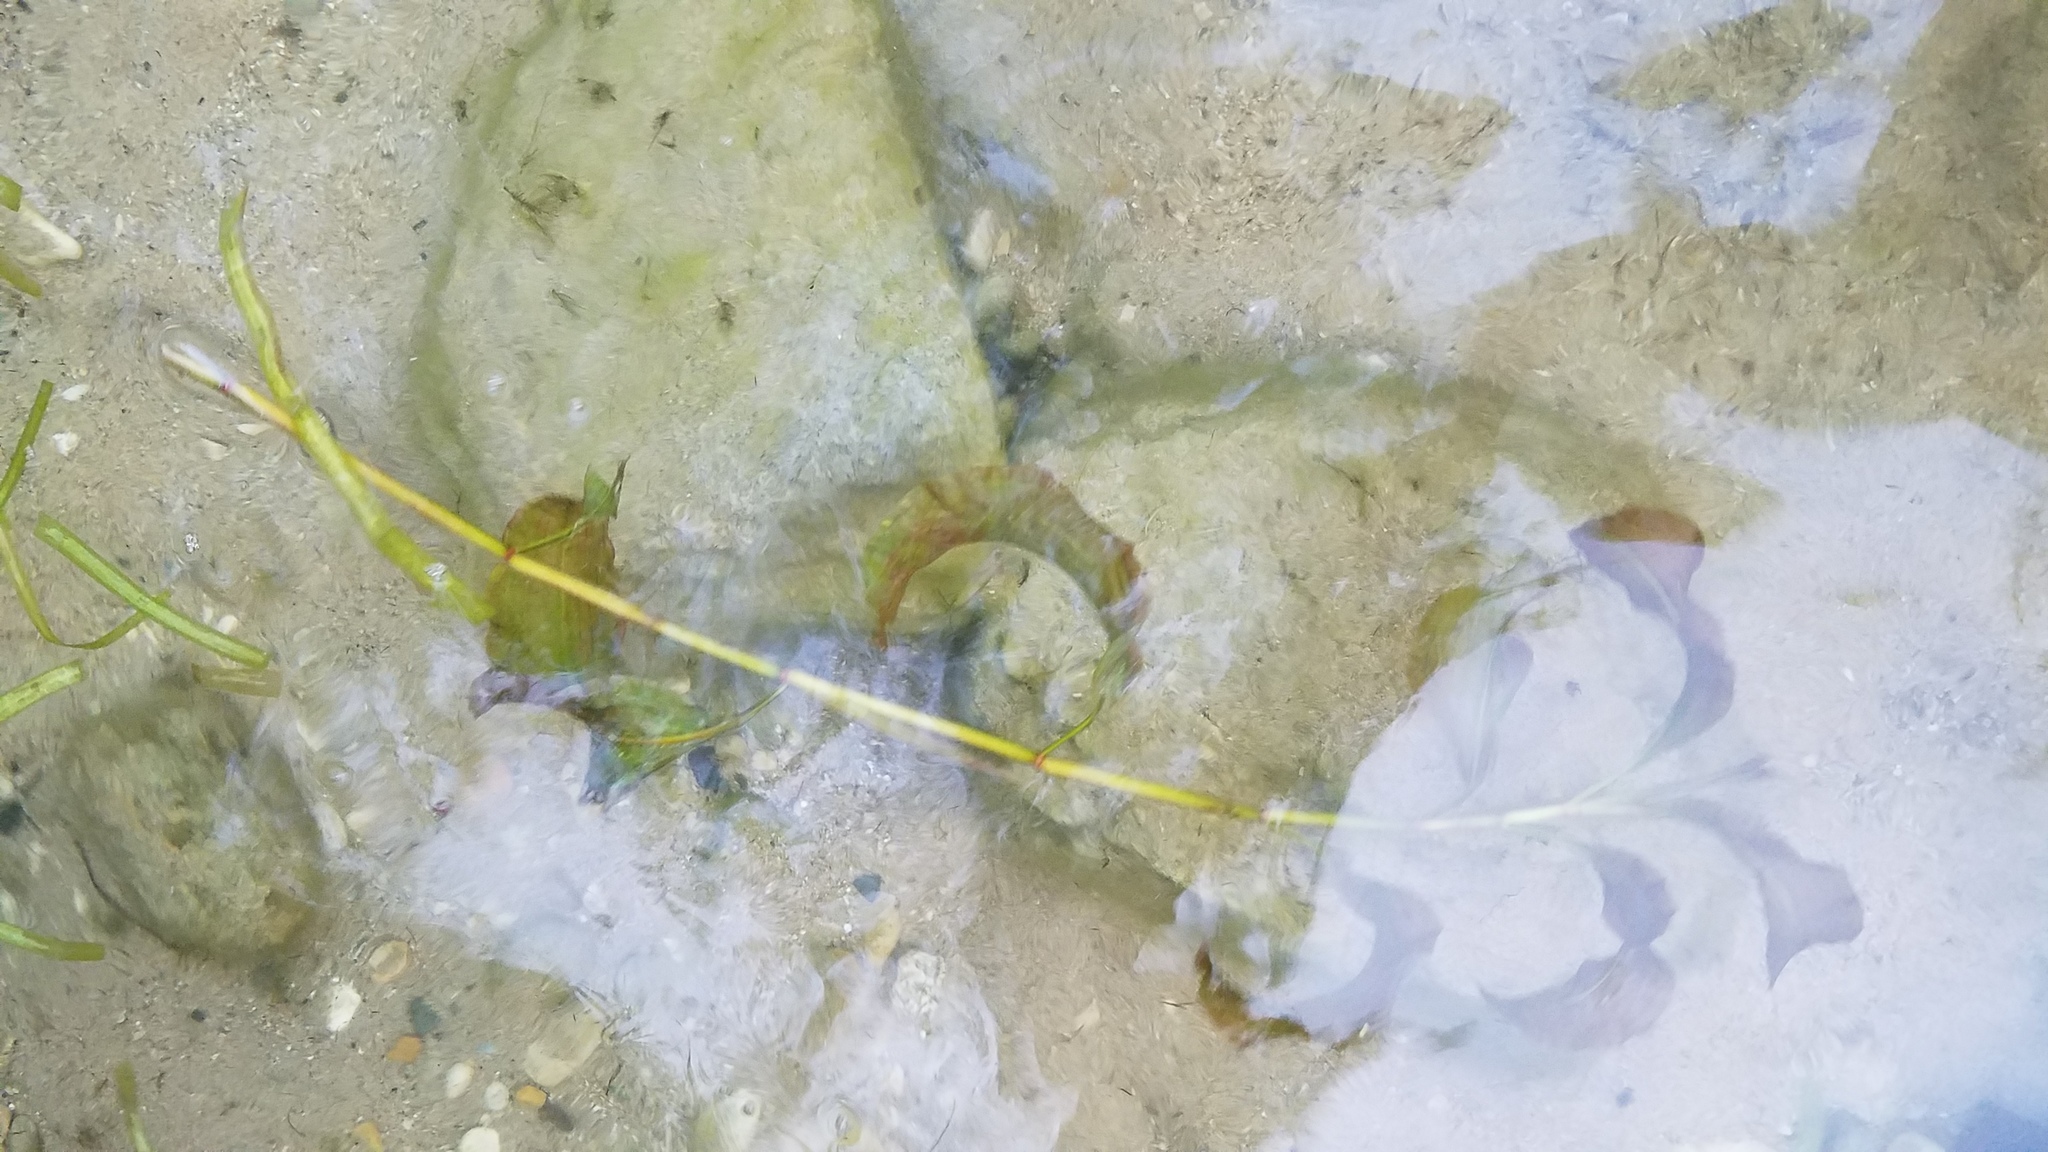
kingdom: Plantae
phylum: Tracheophyta
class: Liliopsida
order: Alismatales
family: Potamogetonaceae
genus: Potamogeton
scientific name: Potamogeton amplifolius
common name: Broad-leaved pondweed
